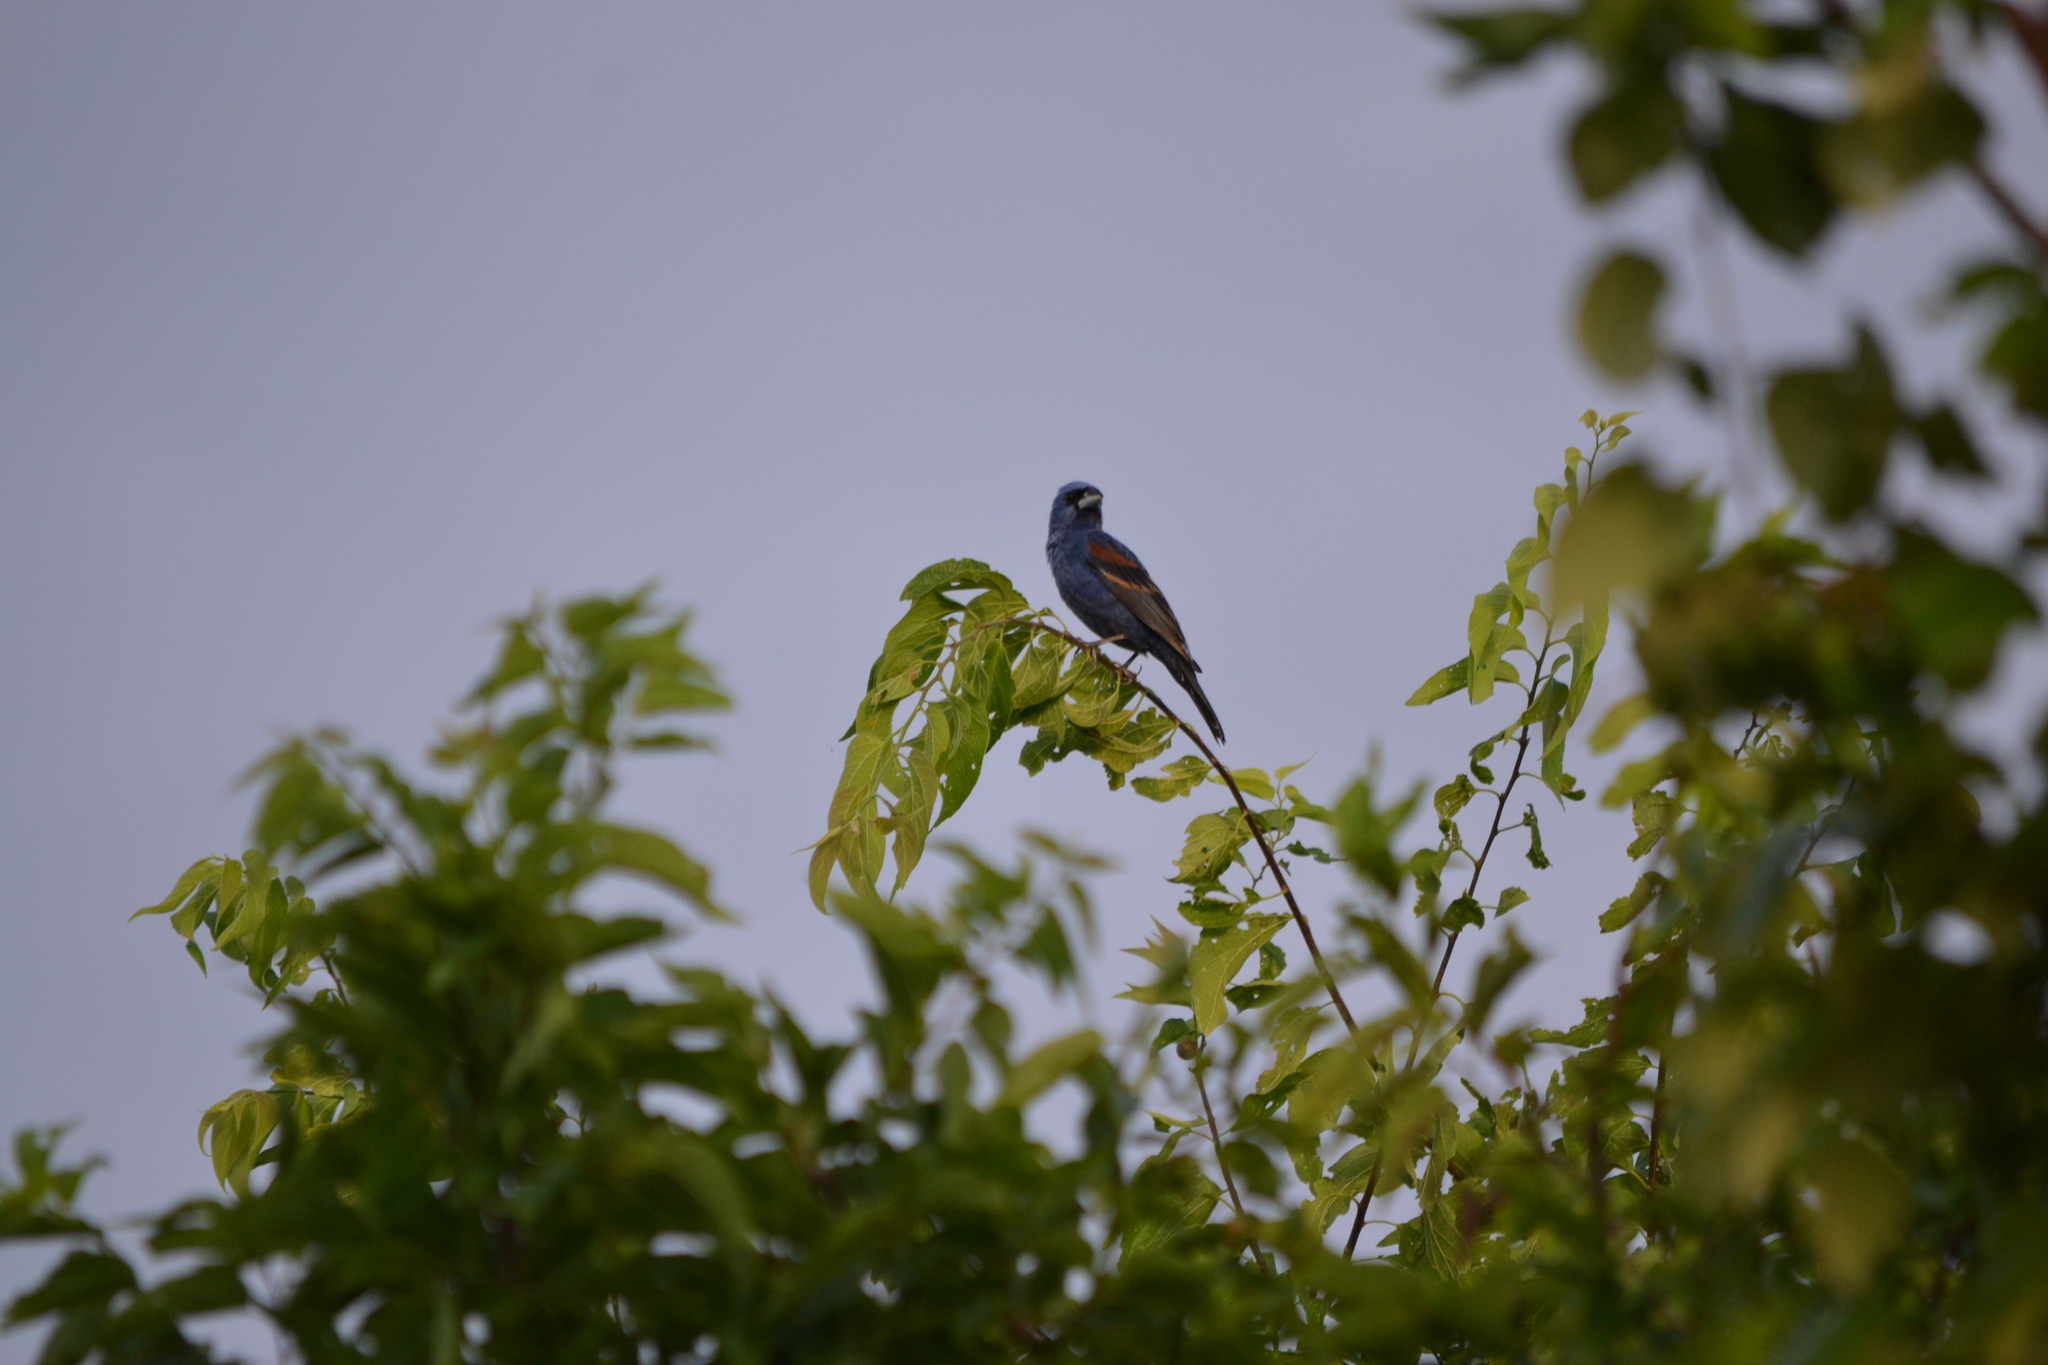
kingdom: Animalia
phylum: Chordata
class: Aves
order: Passeriformes
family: Cardinalidae
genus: Passerina
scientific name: Passerina caerulea
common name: Blue grosbeak
